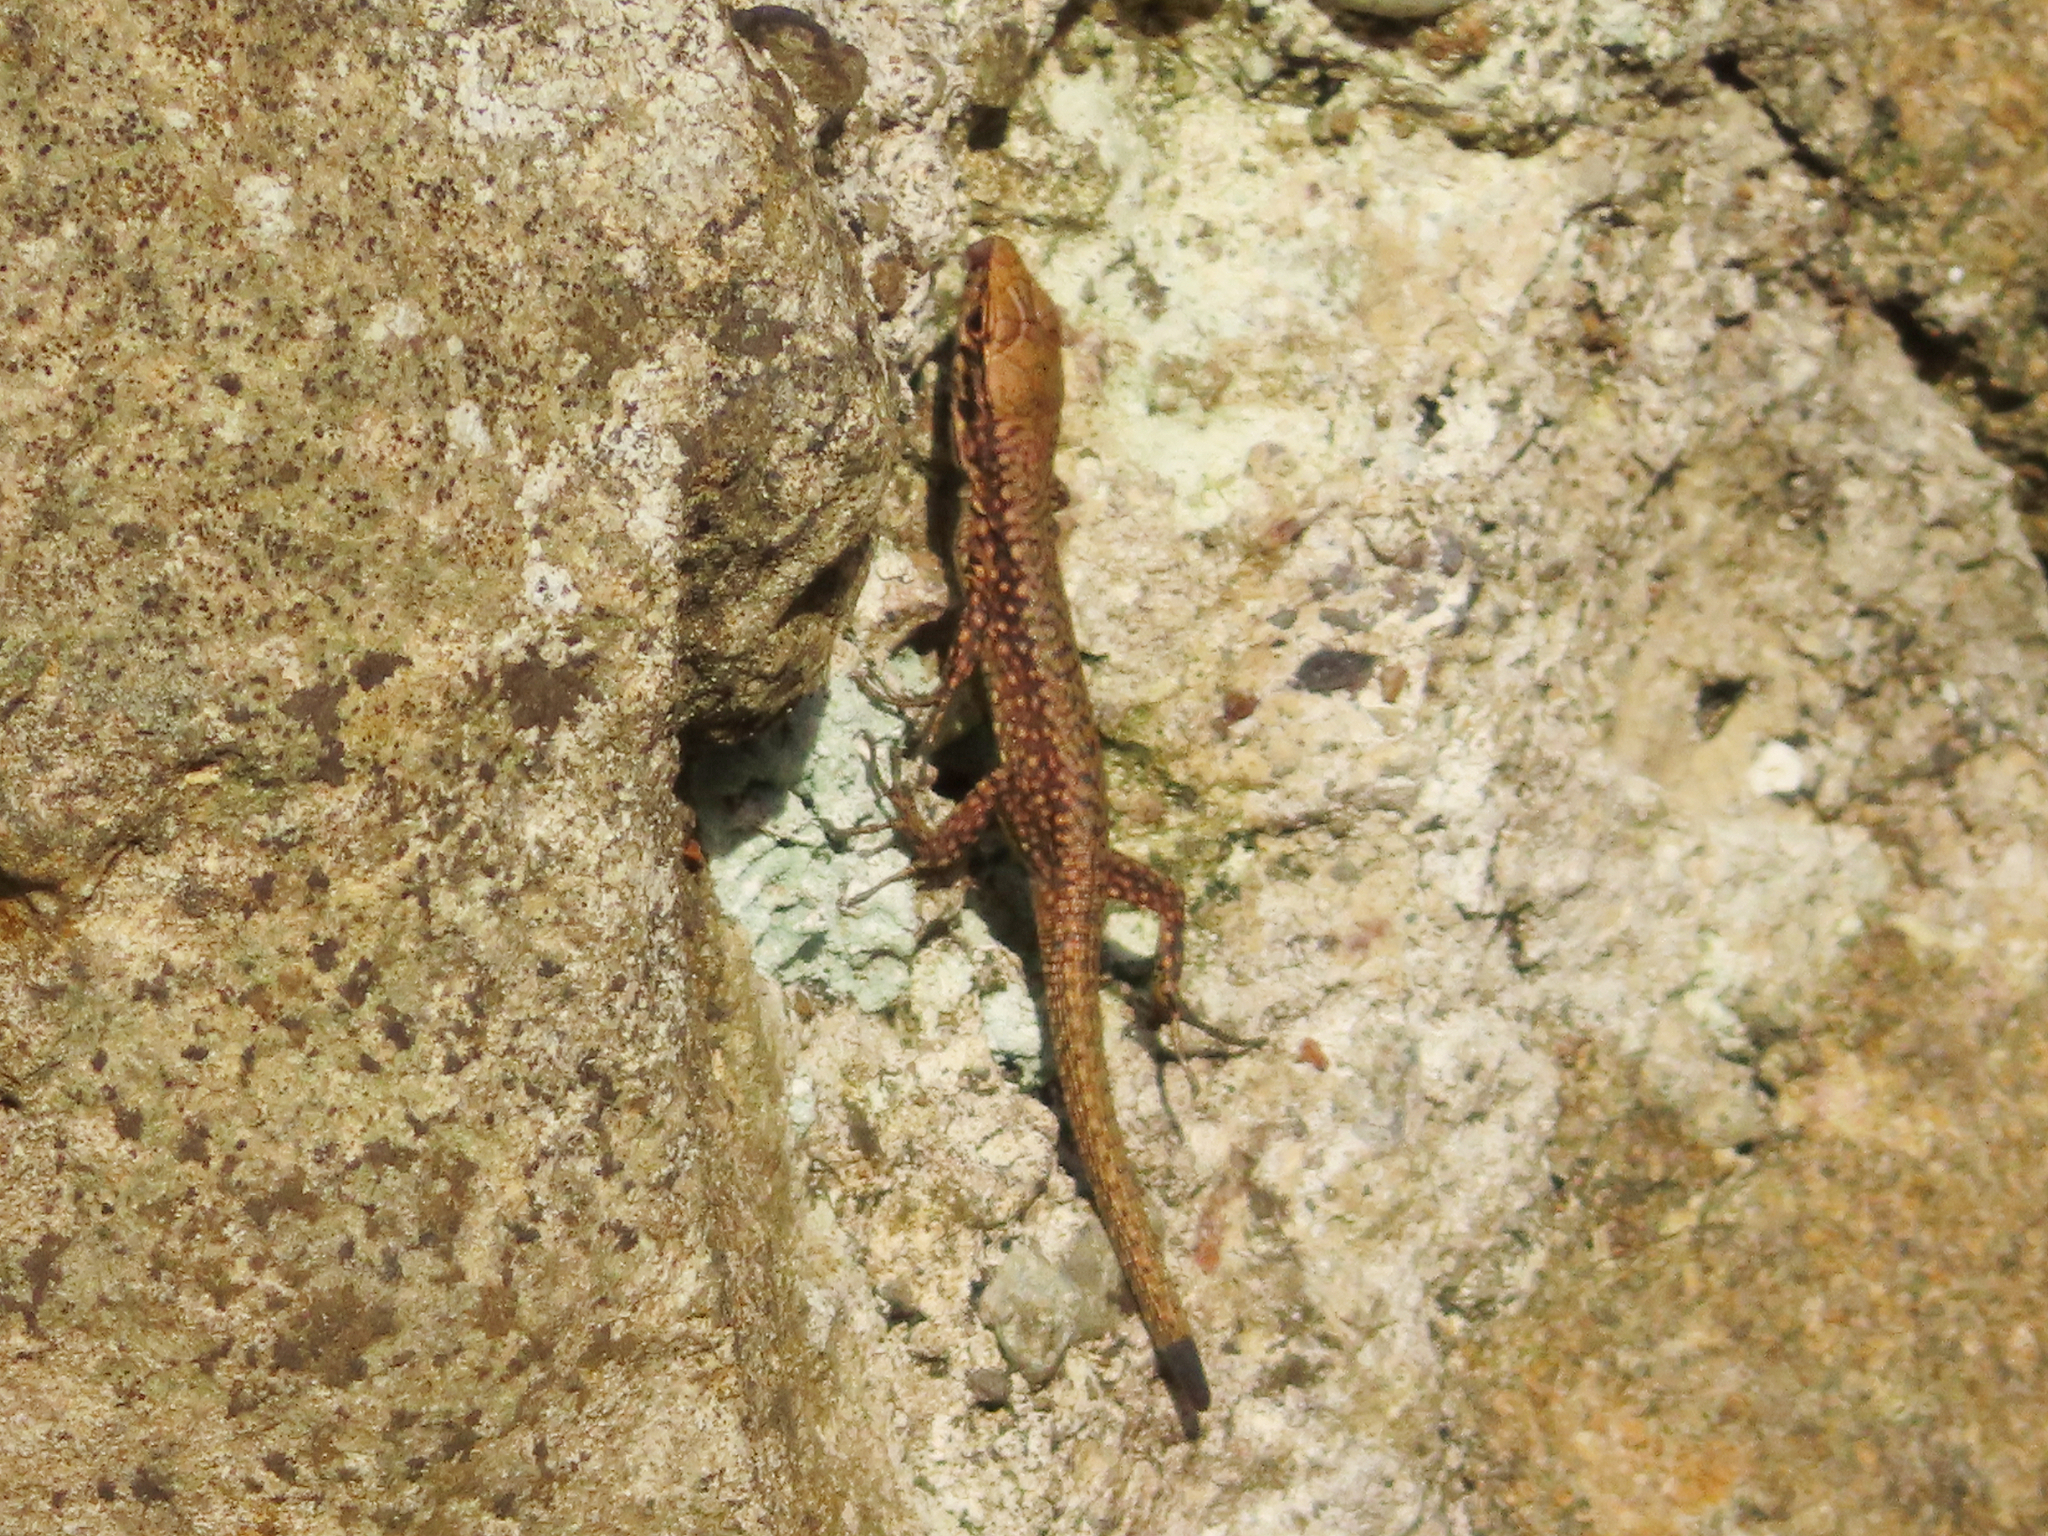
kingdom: Animalia
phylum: Chordata
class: Squamata
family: Lacertidae
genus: Darevskia
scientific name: Darevskia rudis
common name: Spiny-tailed lizard
